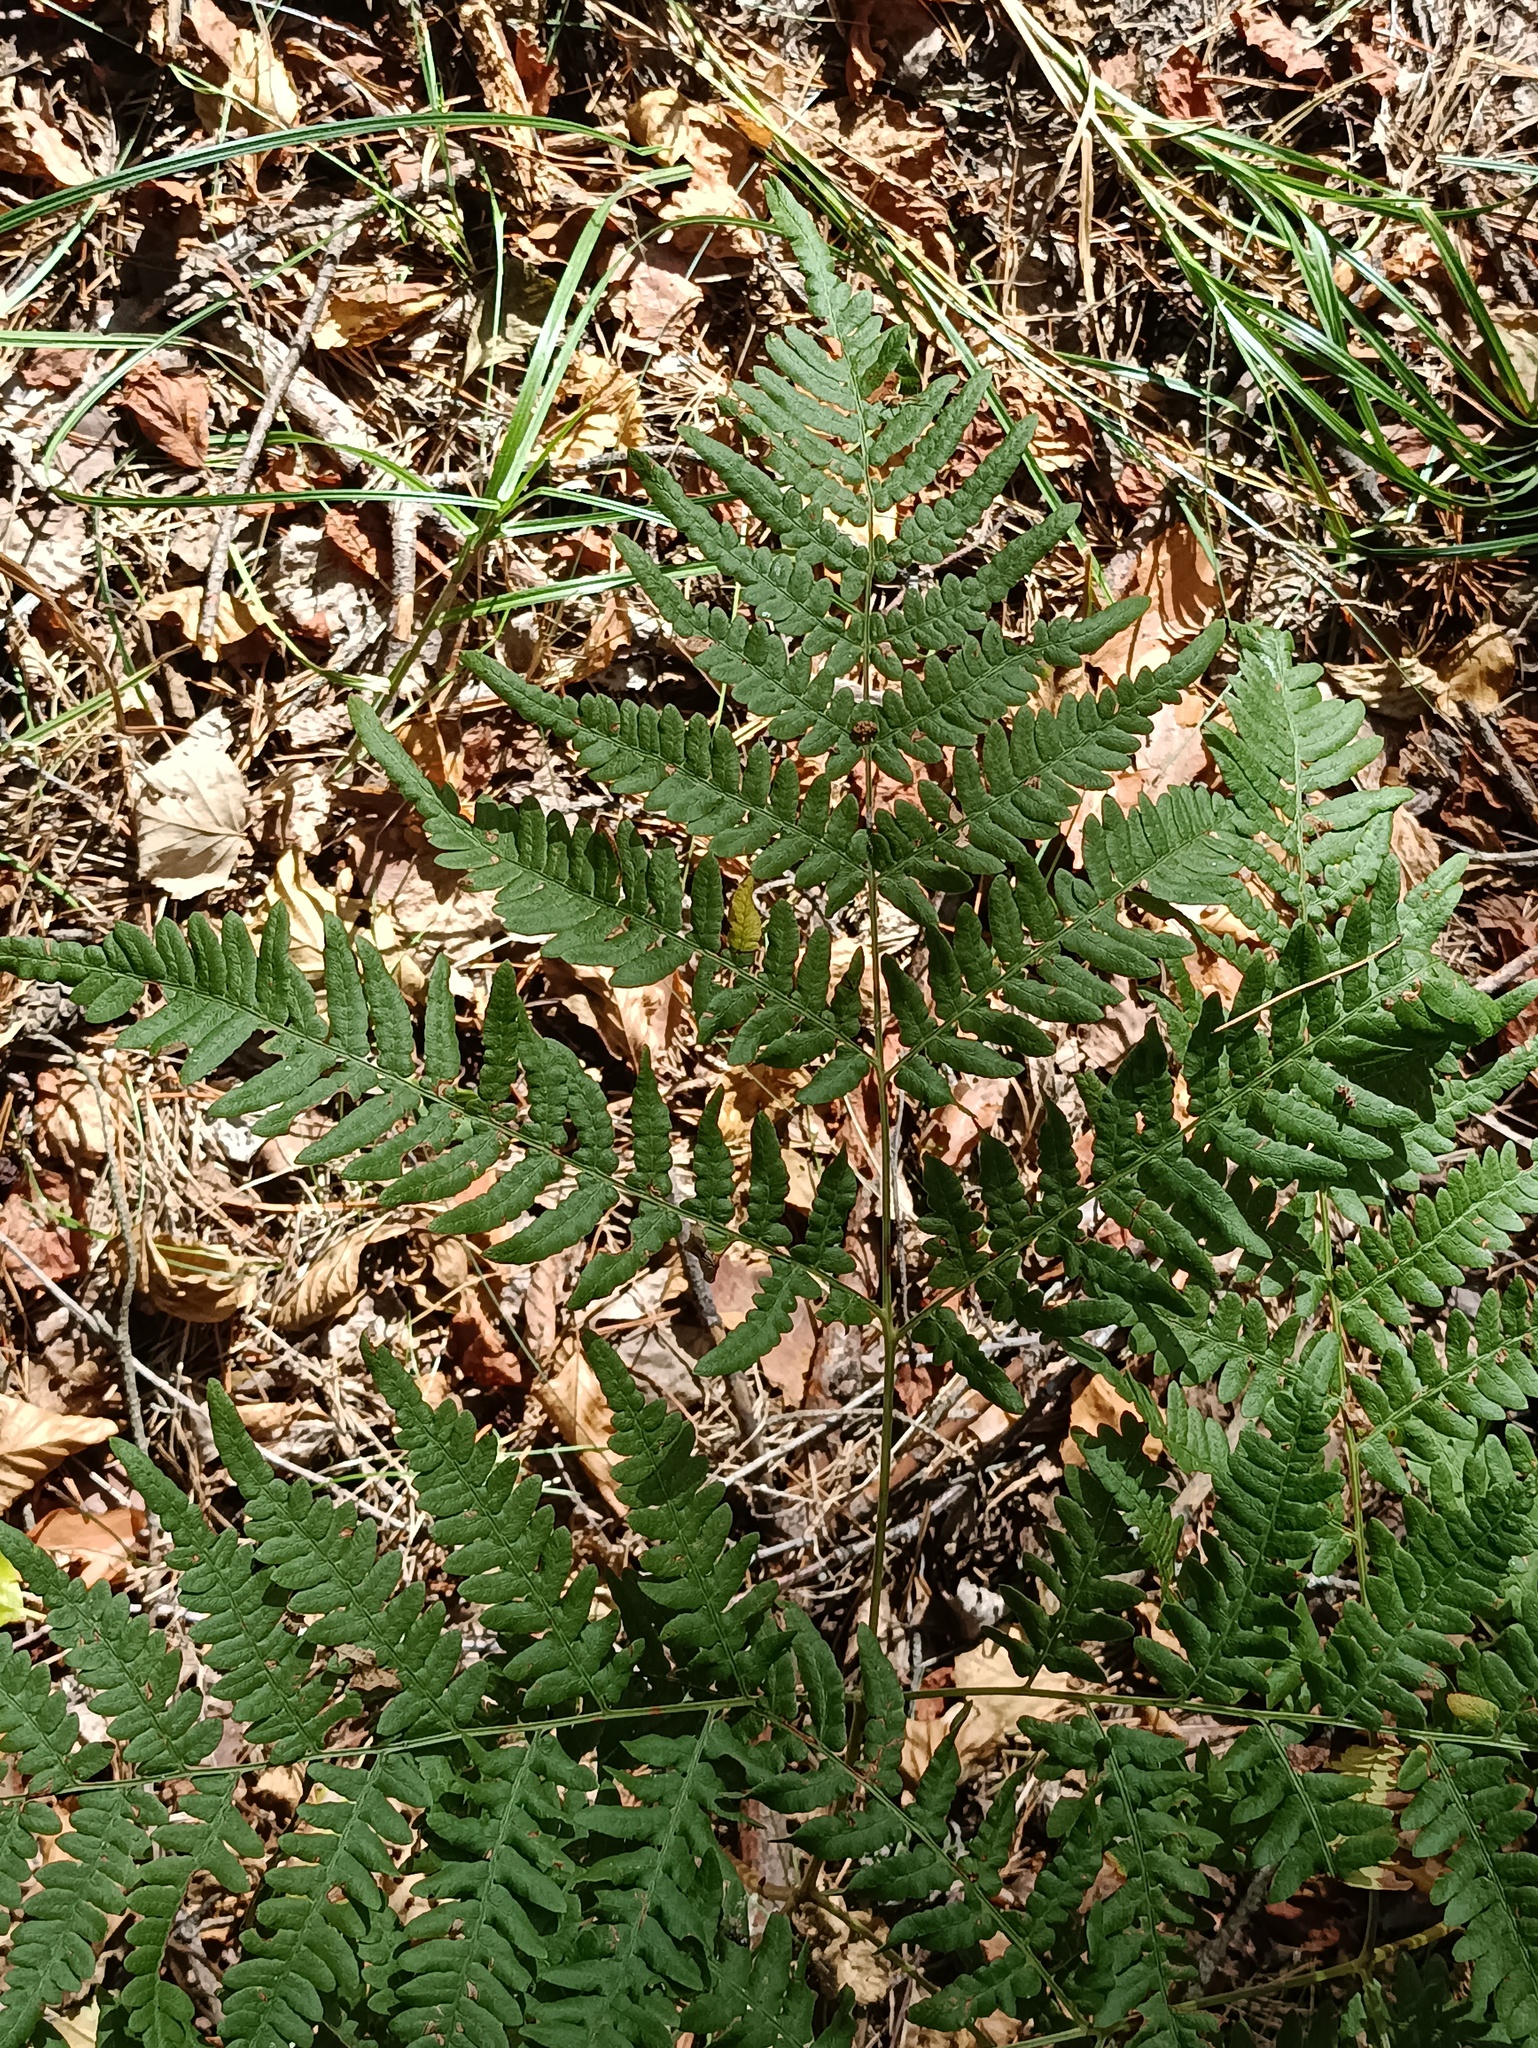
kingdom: Plantae
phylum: Tracheophyta
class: Polypodiopsida
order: Polypodiales
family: Dennstaedtiaceae
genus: Pteridium
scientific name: Pteridium aquilinum
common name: Bracken
